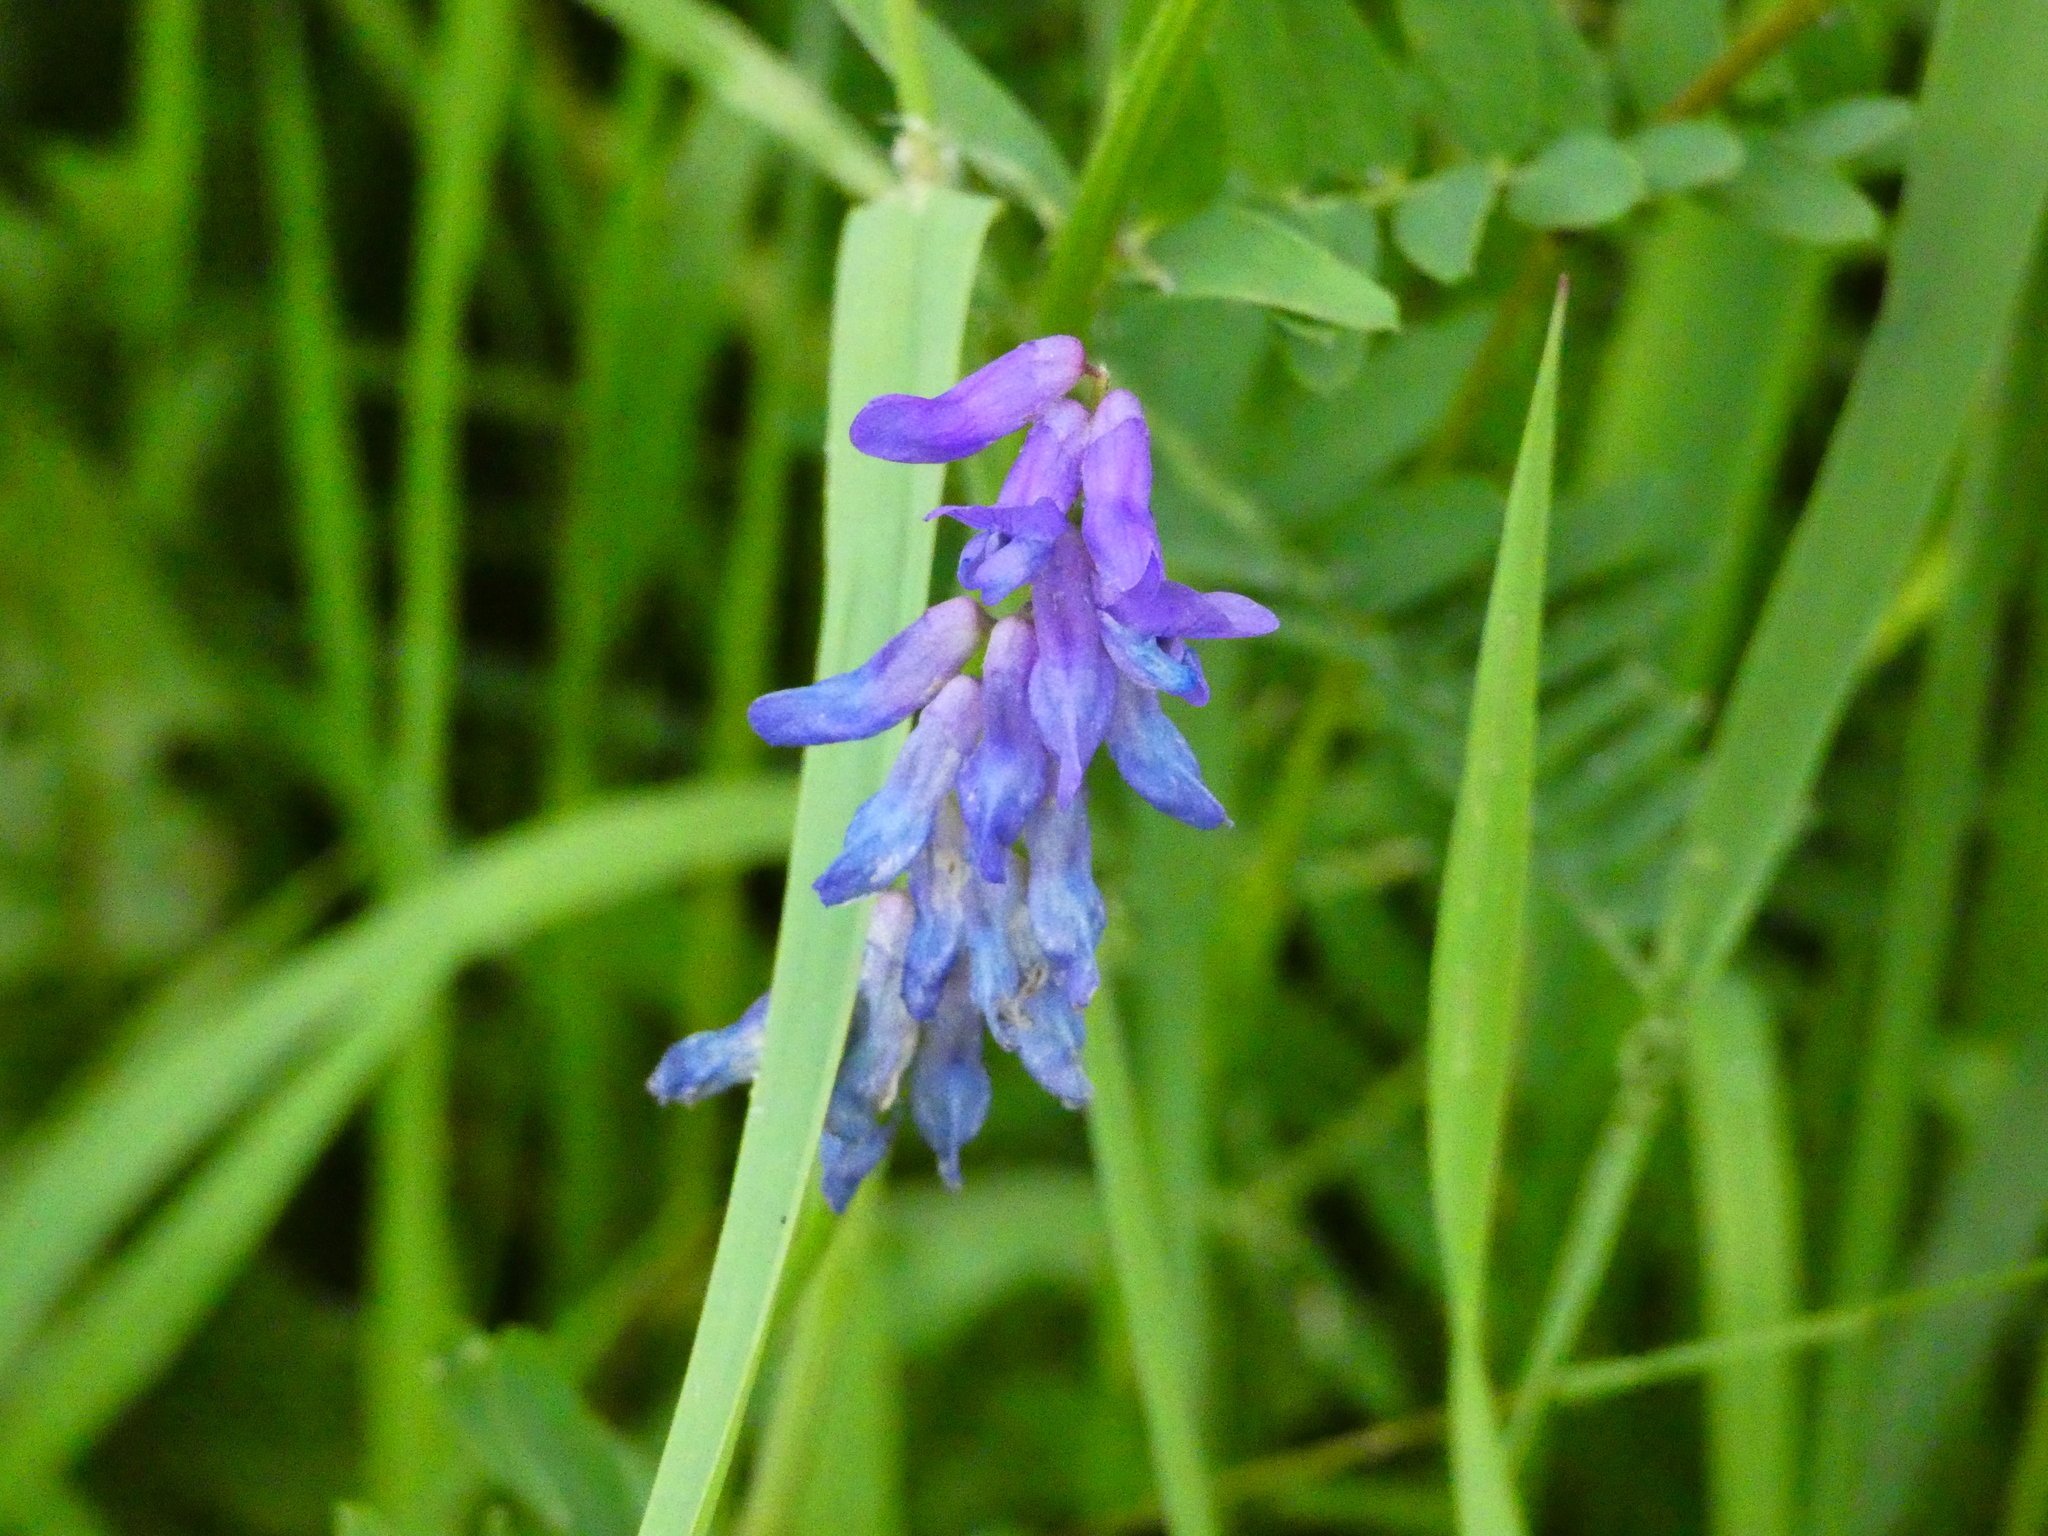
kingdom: Plantae
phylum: Tracheophyta
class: Magnoliopsida
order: Fabales
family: Fabaceae
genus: Vicia
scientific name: Vicia cracca
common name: Bird vetch
